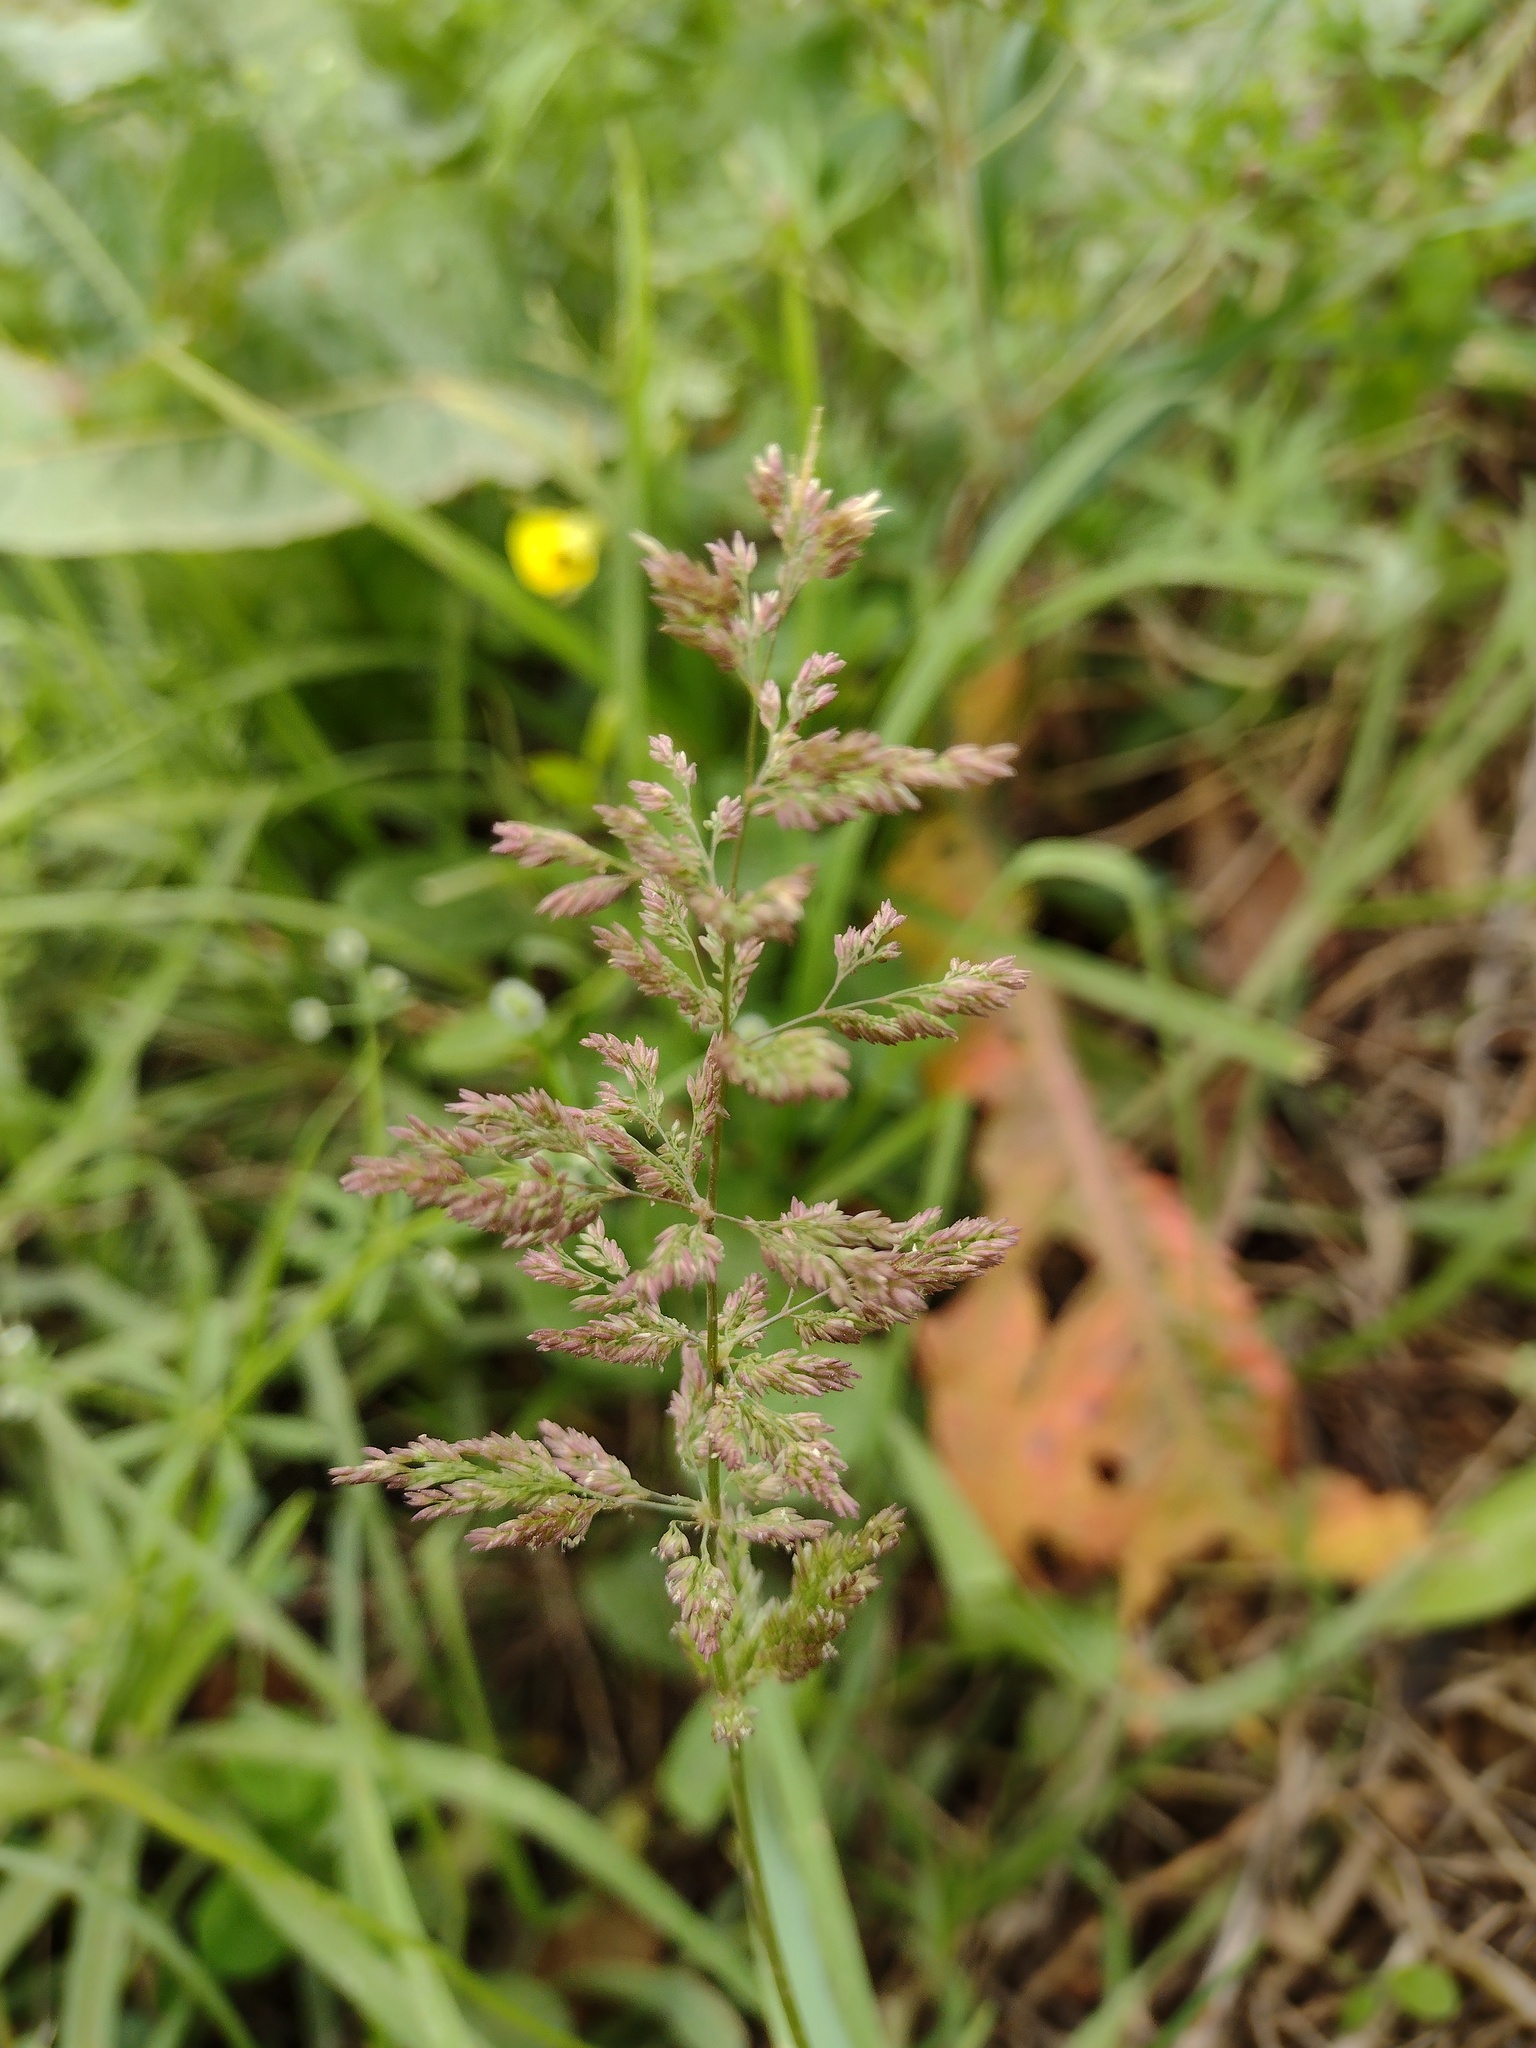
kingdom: Plantae
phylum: Tracheophyta
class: Liliopsida
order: Poales
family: Poaceae
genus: Polypogon
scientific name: Polypogon viridis
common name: Water bent
